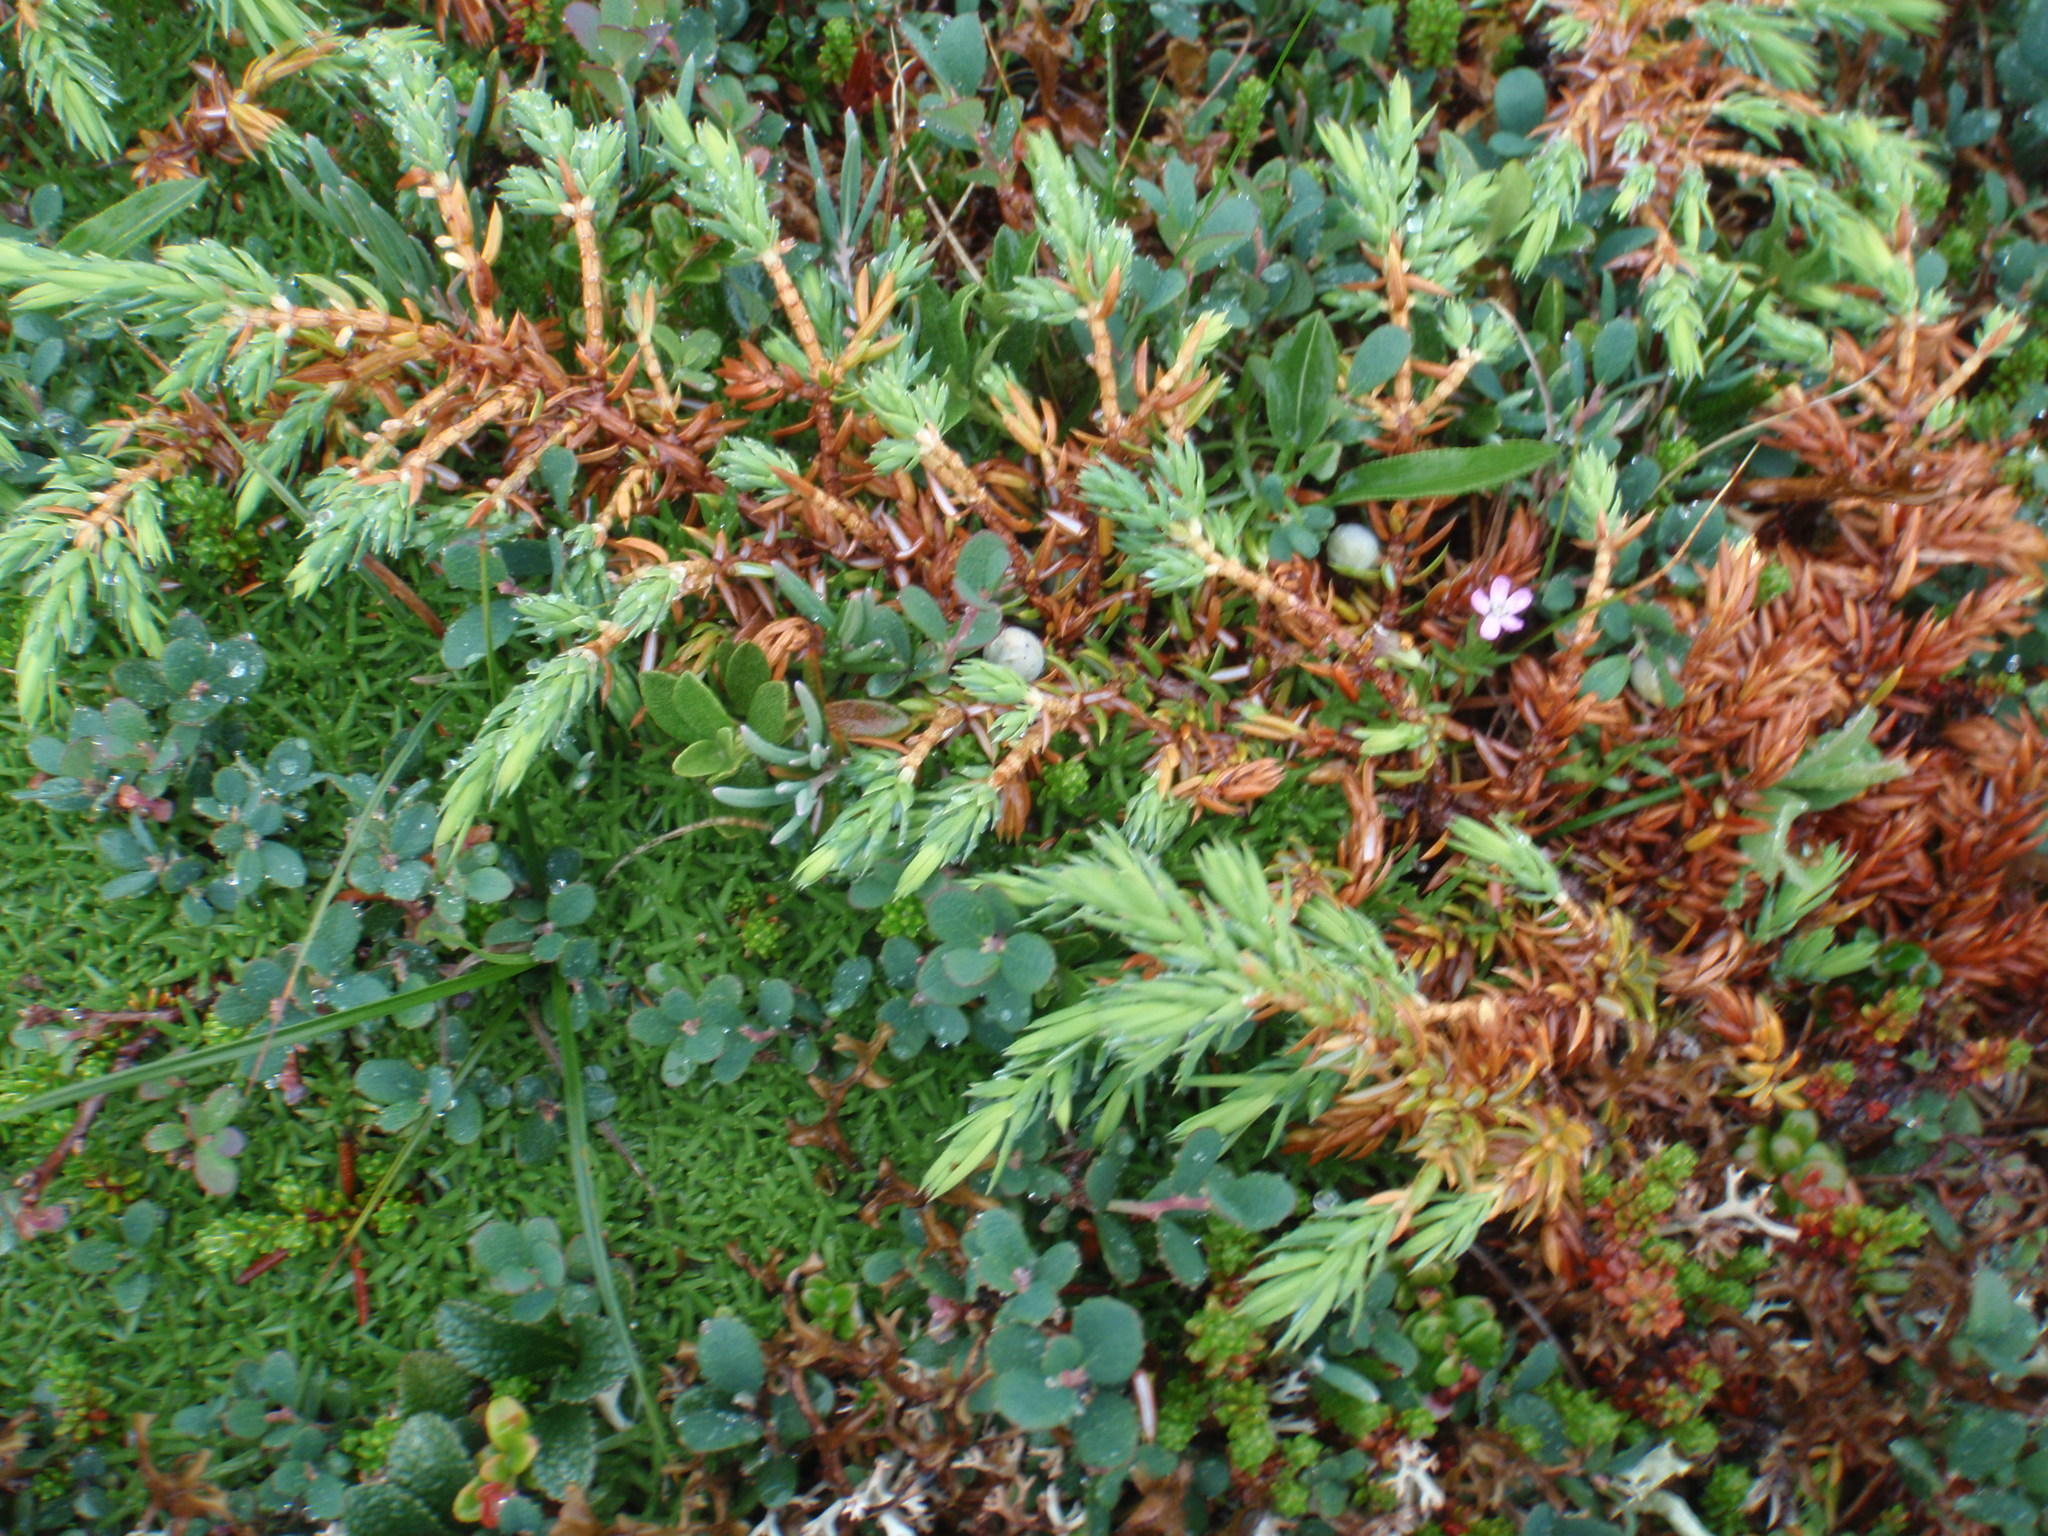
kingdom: Plantae
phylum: Tracheophyta
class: Pinopsida
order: Pinales
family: Cupressaceae
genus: Juniperus
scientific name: Juniperus communis
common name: Common juniper
